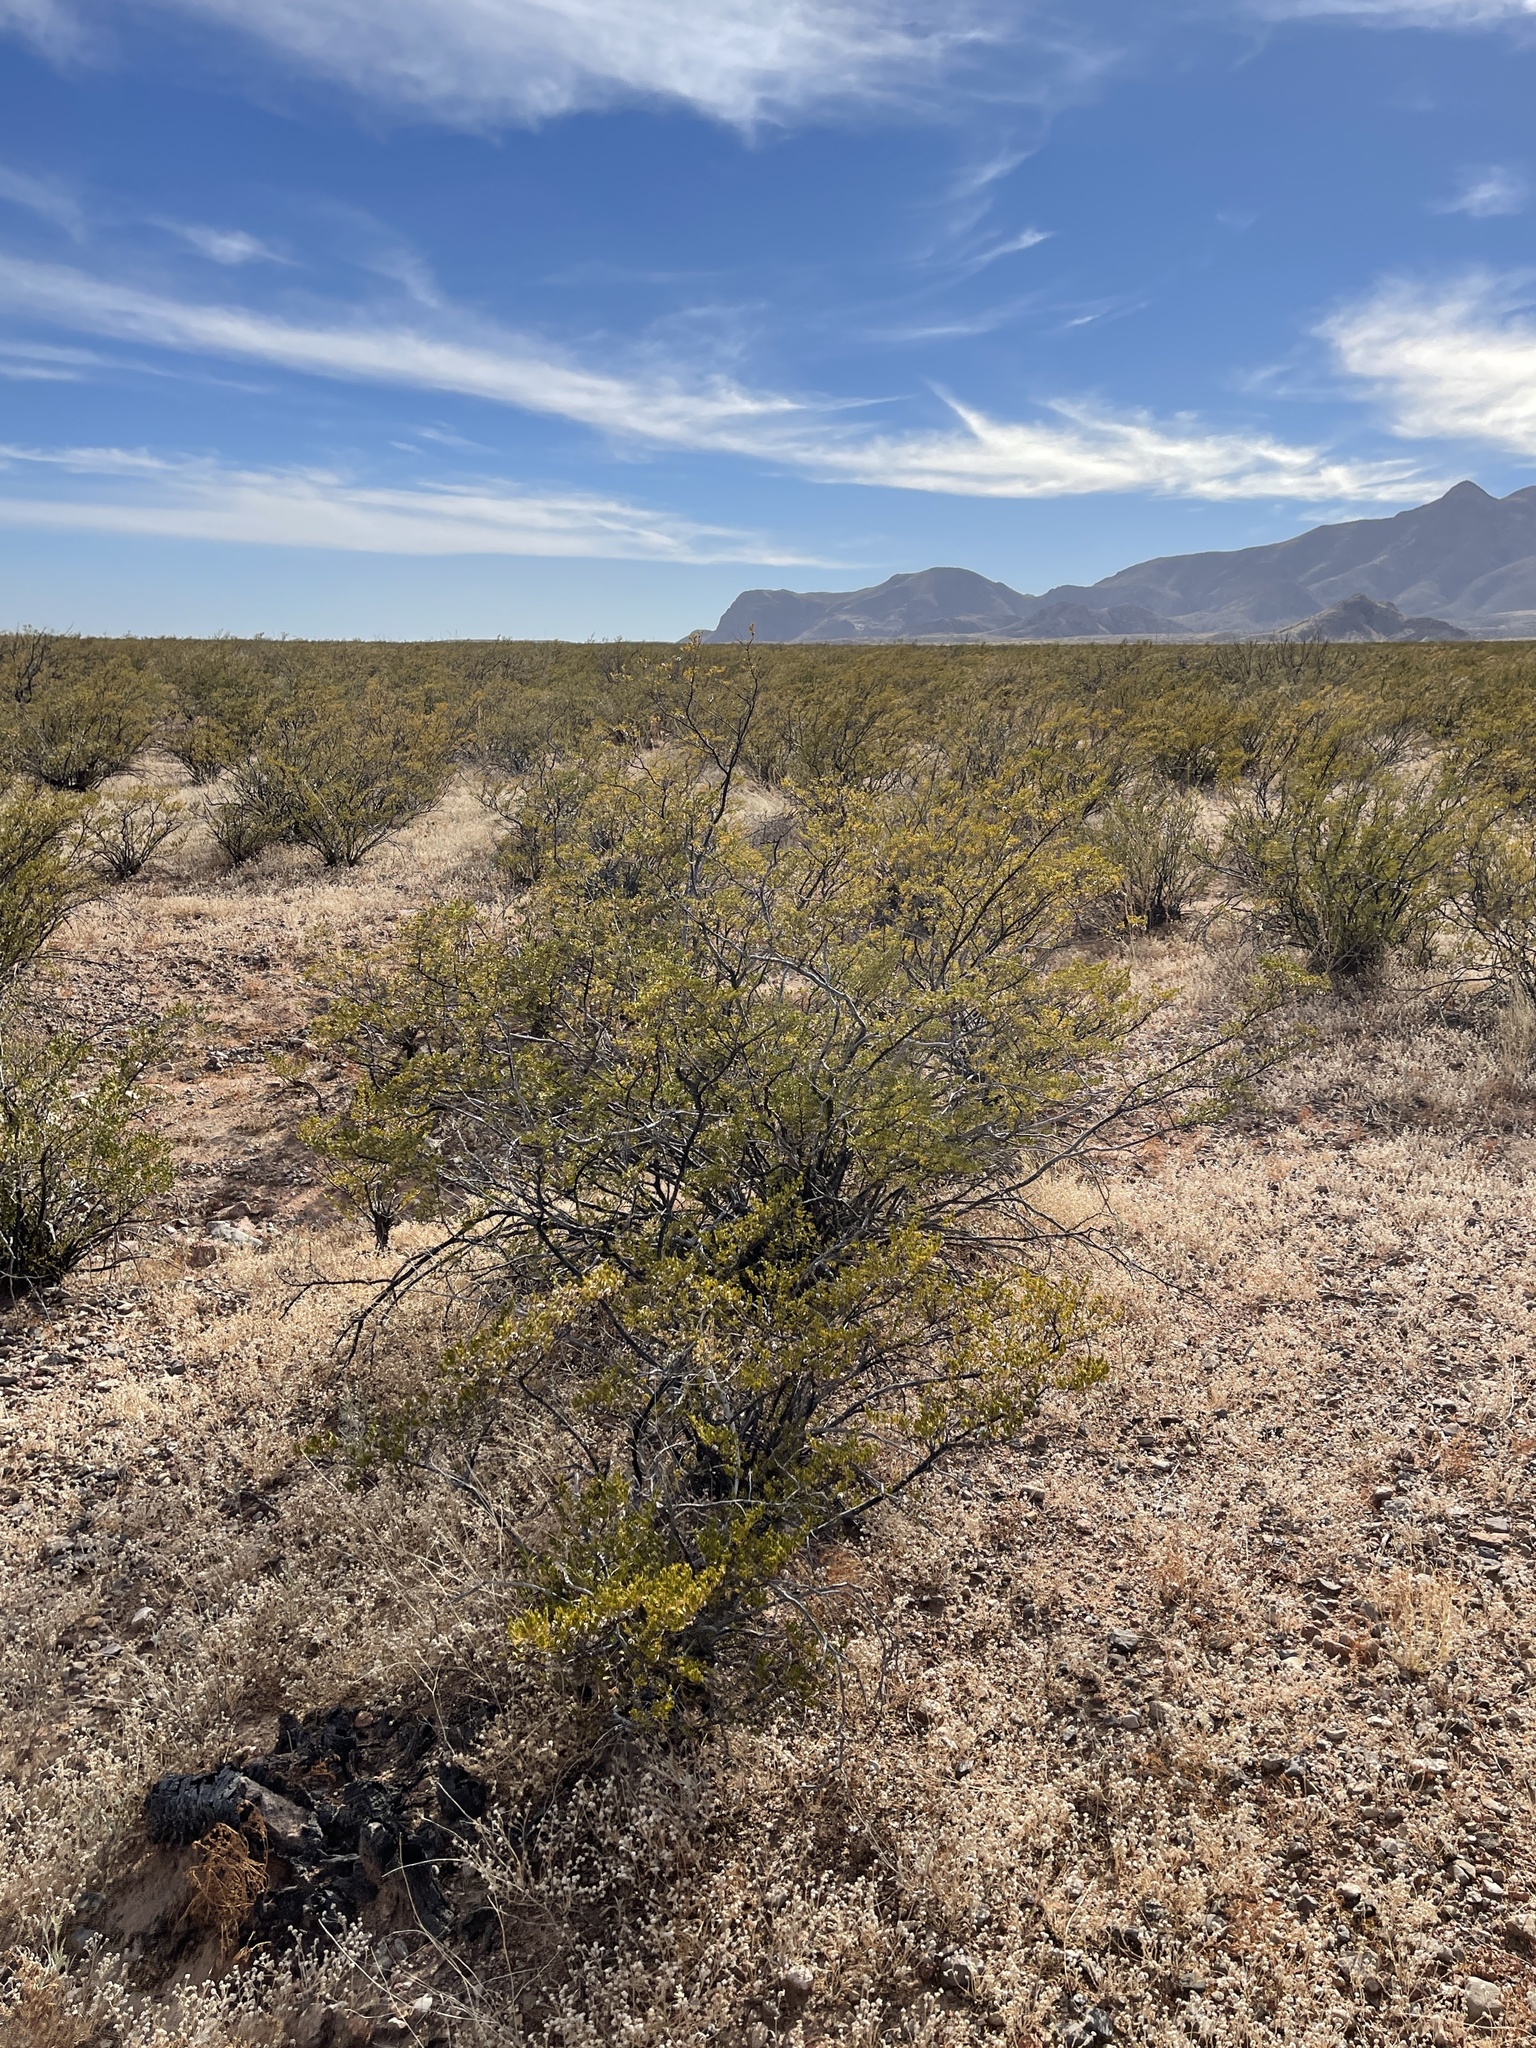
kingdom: Plantae
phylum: Tracheophyta
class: Magnoliopsida
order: Zygophyllales
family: Zygophyllaceae
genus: Larrea
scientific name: Larrea tridentata
